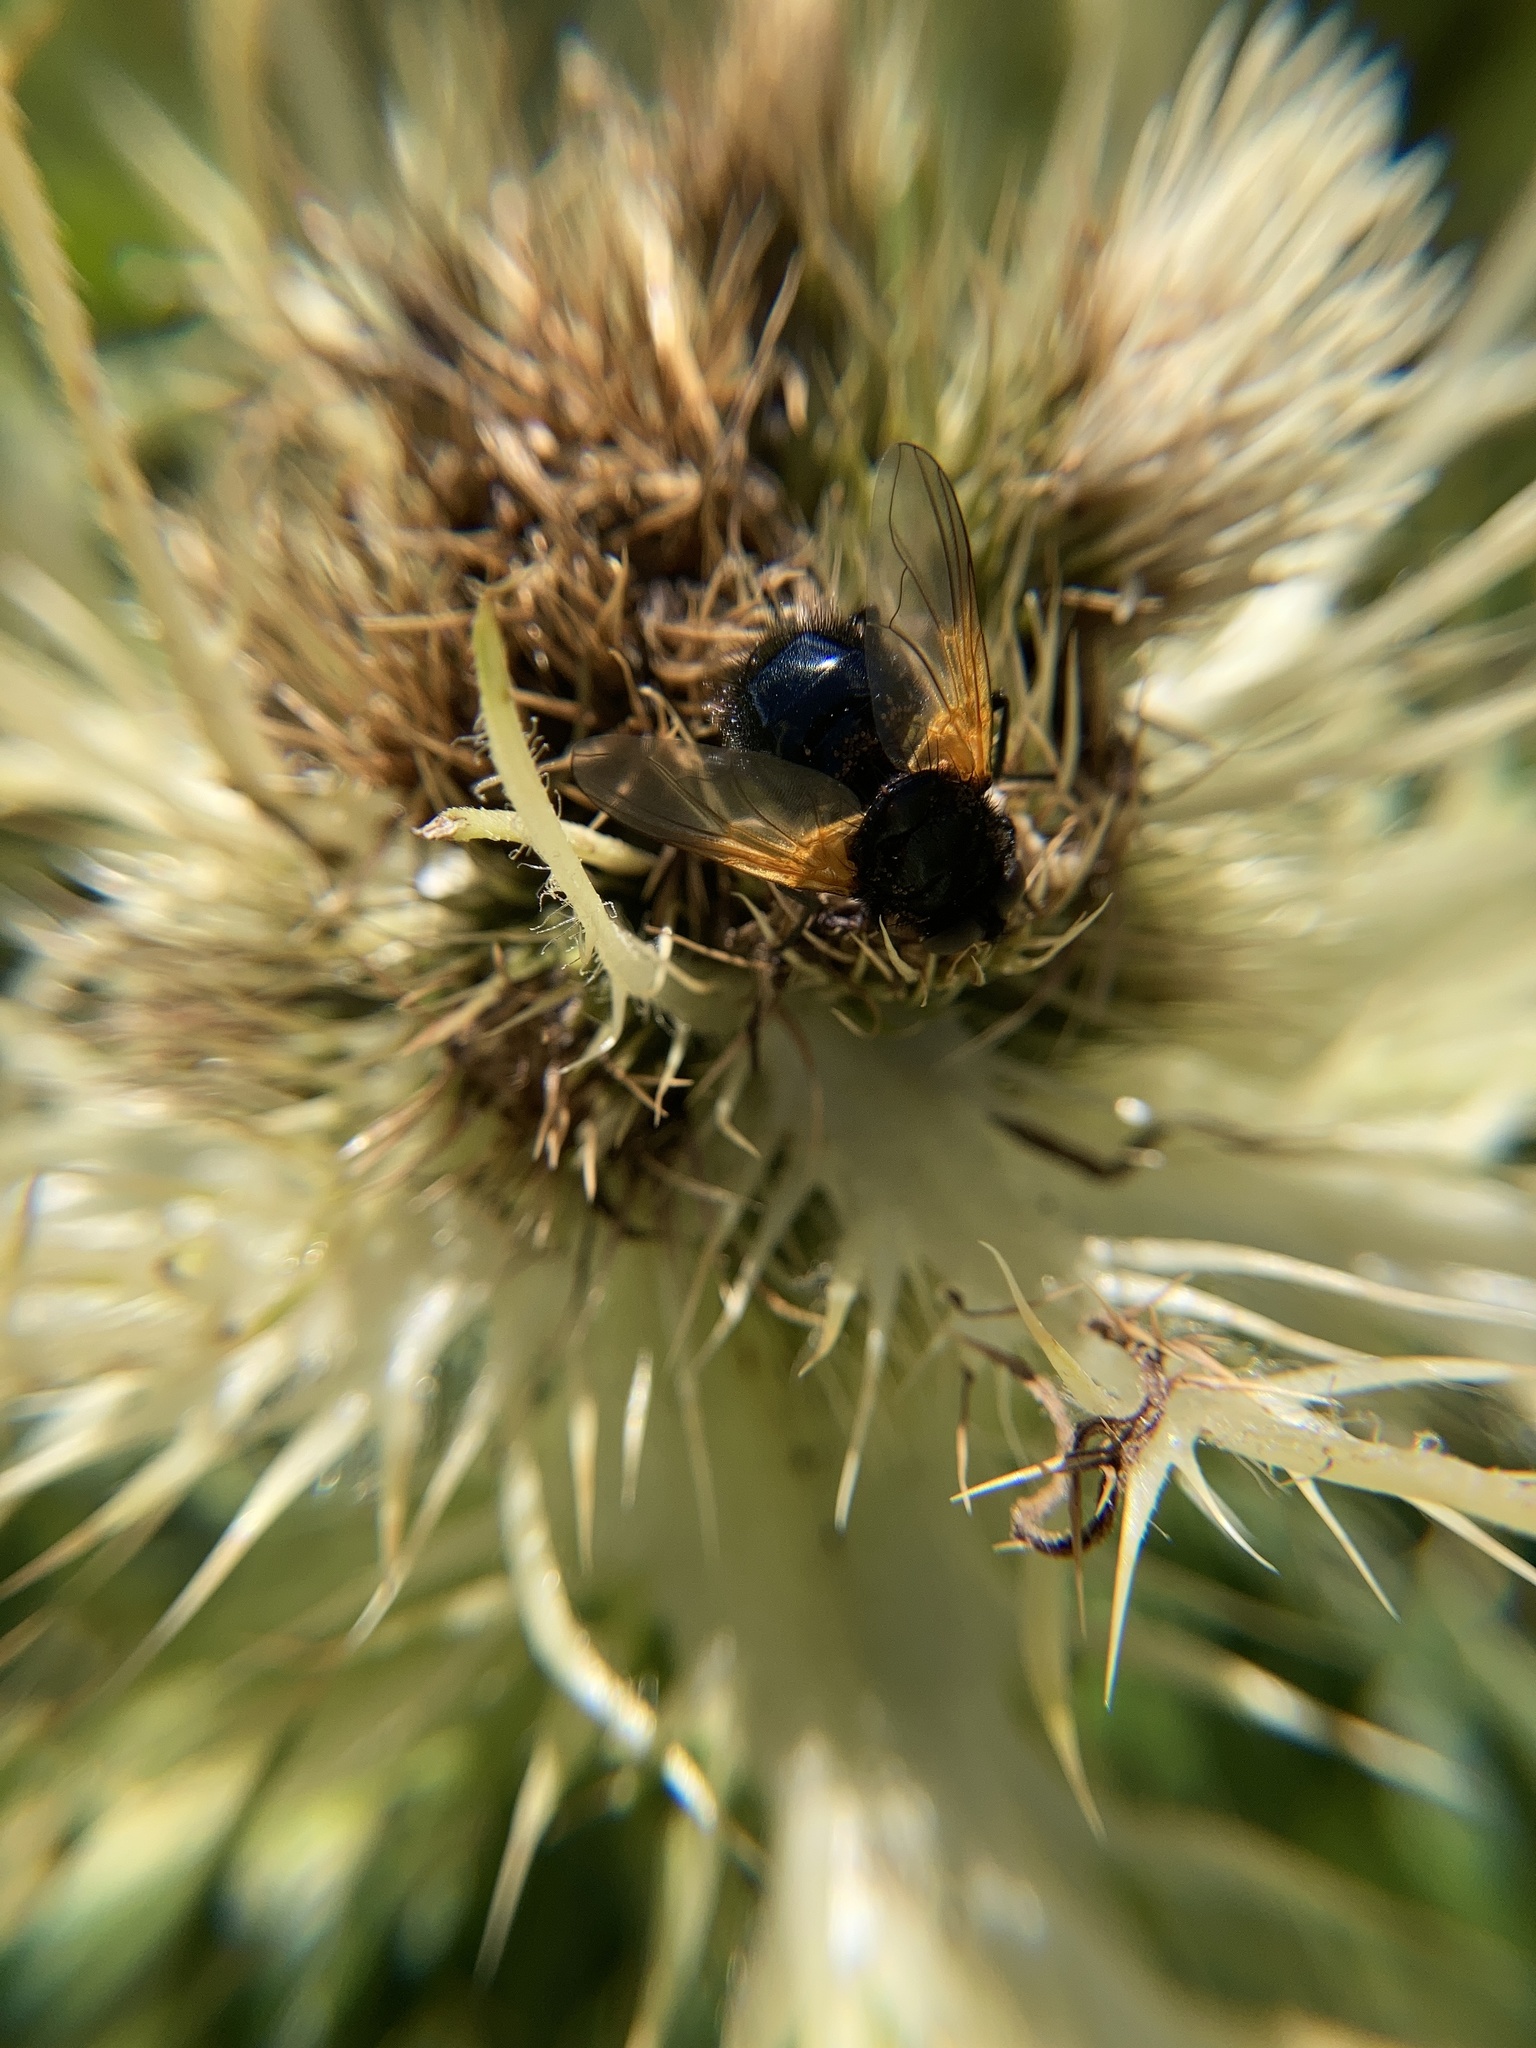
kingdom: Animalia
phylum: Arthropoda
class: Insecta
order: Diptera
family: Muscidae
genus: Mesembrina
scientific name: Mesembrina meridiana
